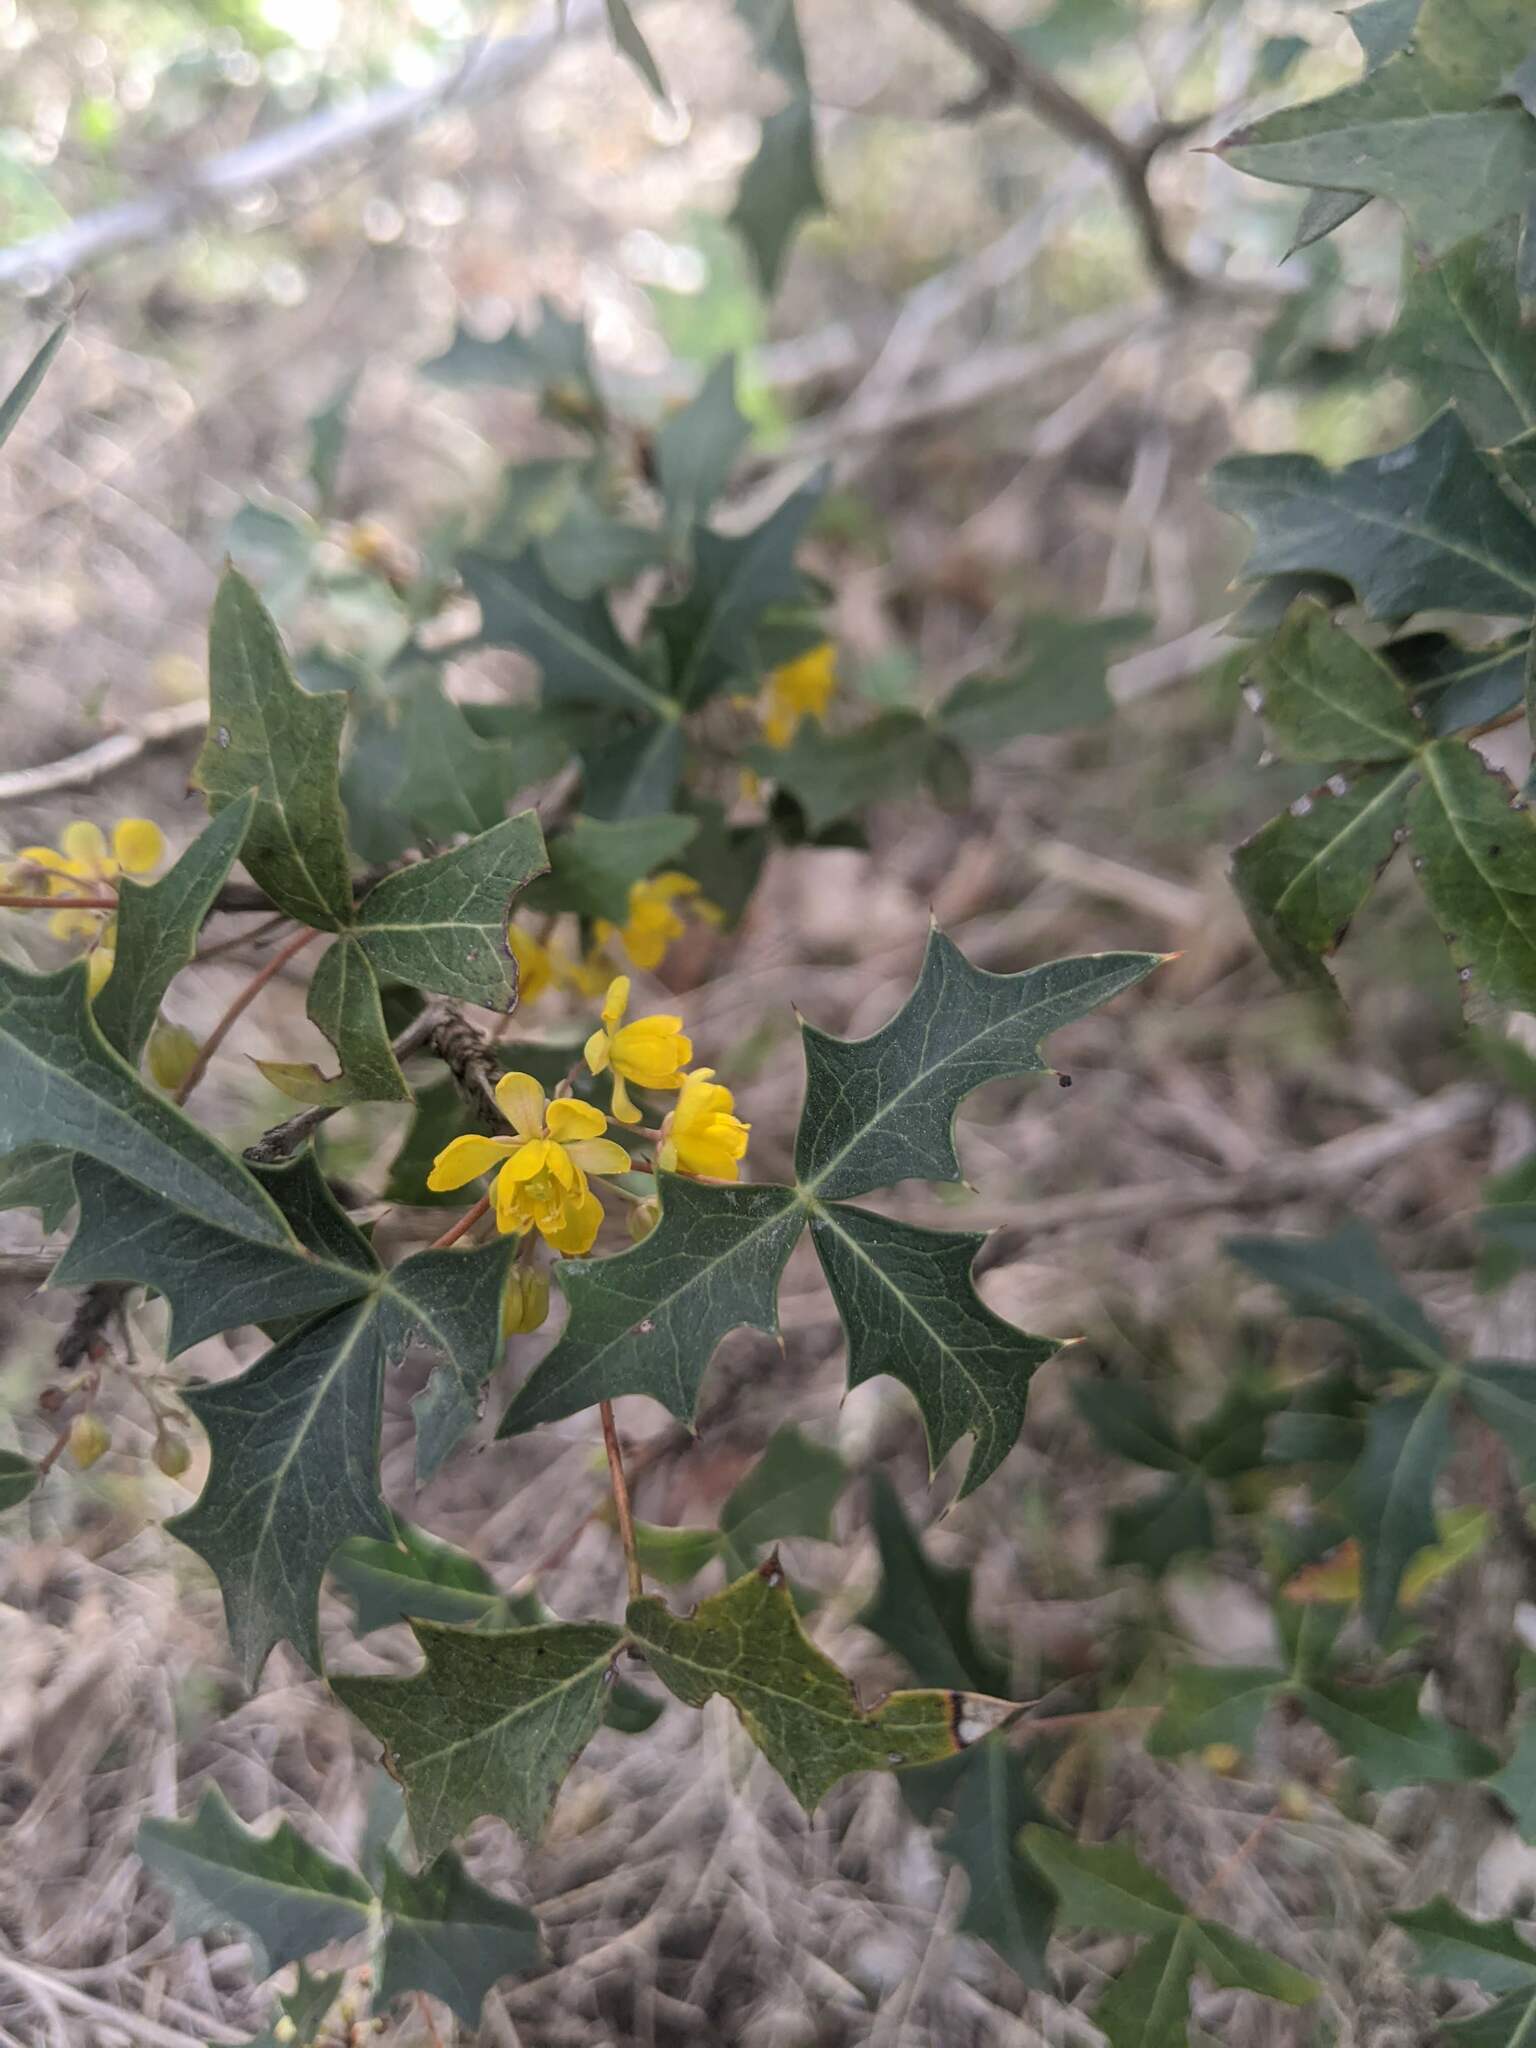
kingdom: Plantae
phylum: Tracheophyta
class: Magnoliopsida
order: Ranunculales
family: Berberidaceae
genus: Alloberberis
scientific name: Alloberberis trifoliolata
